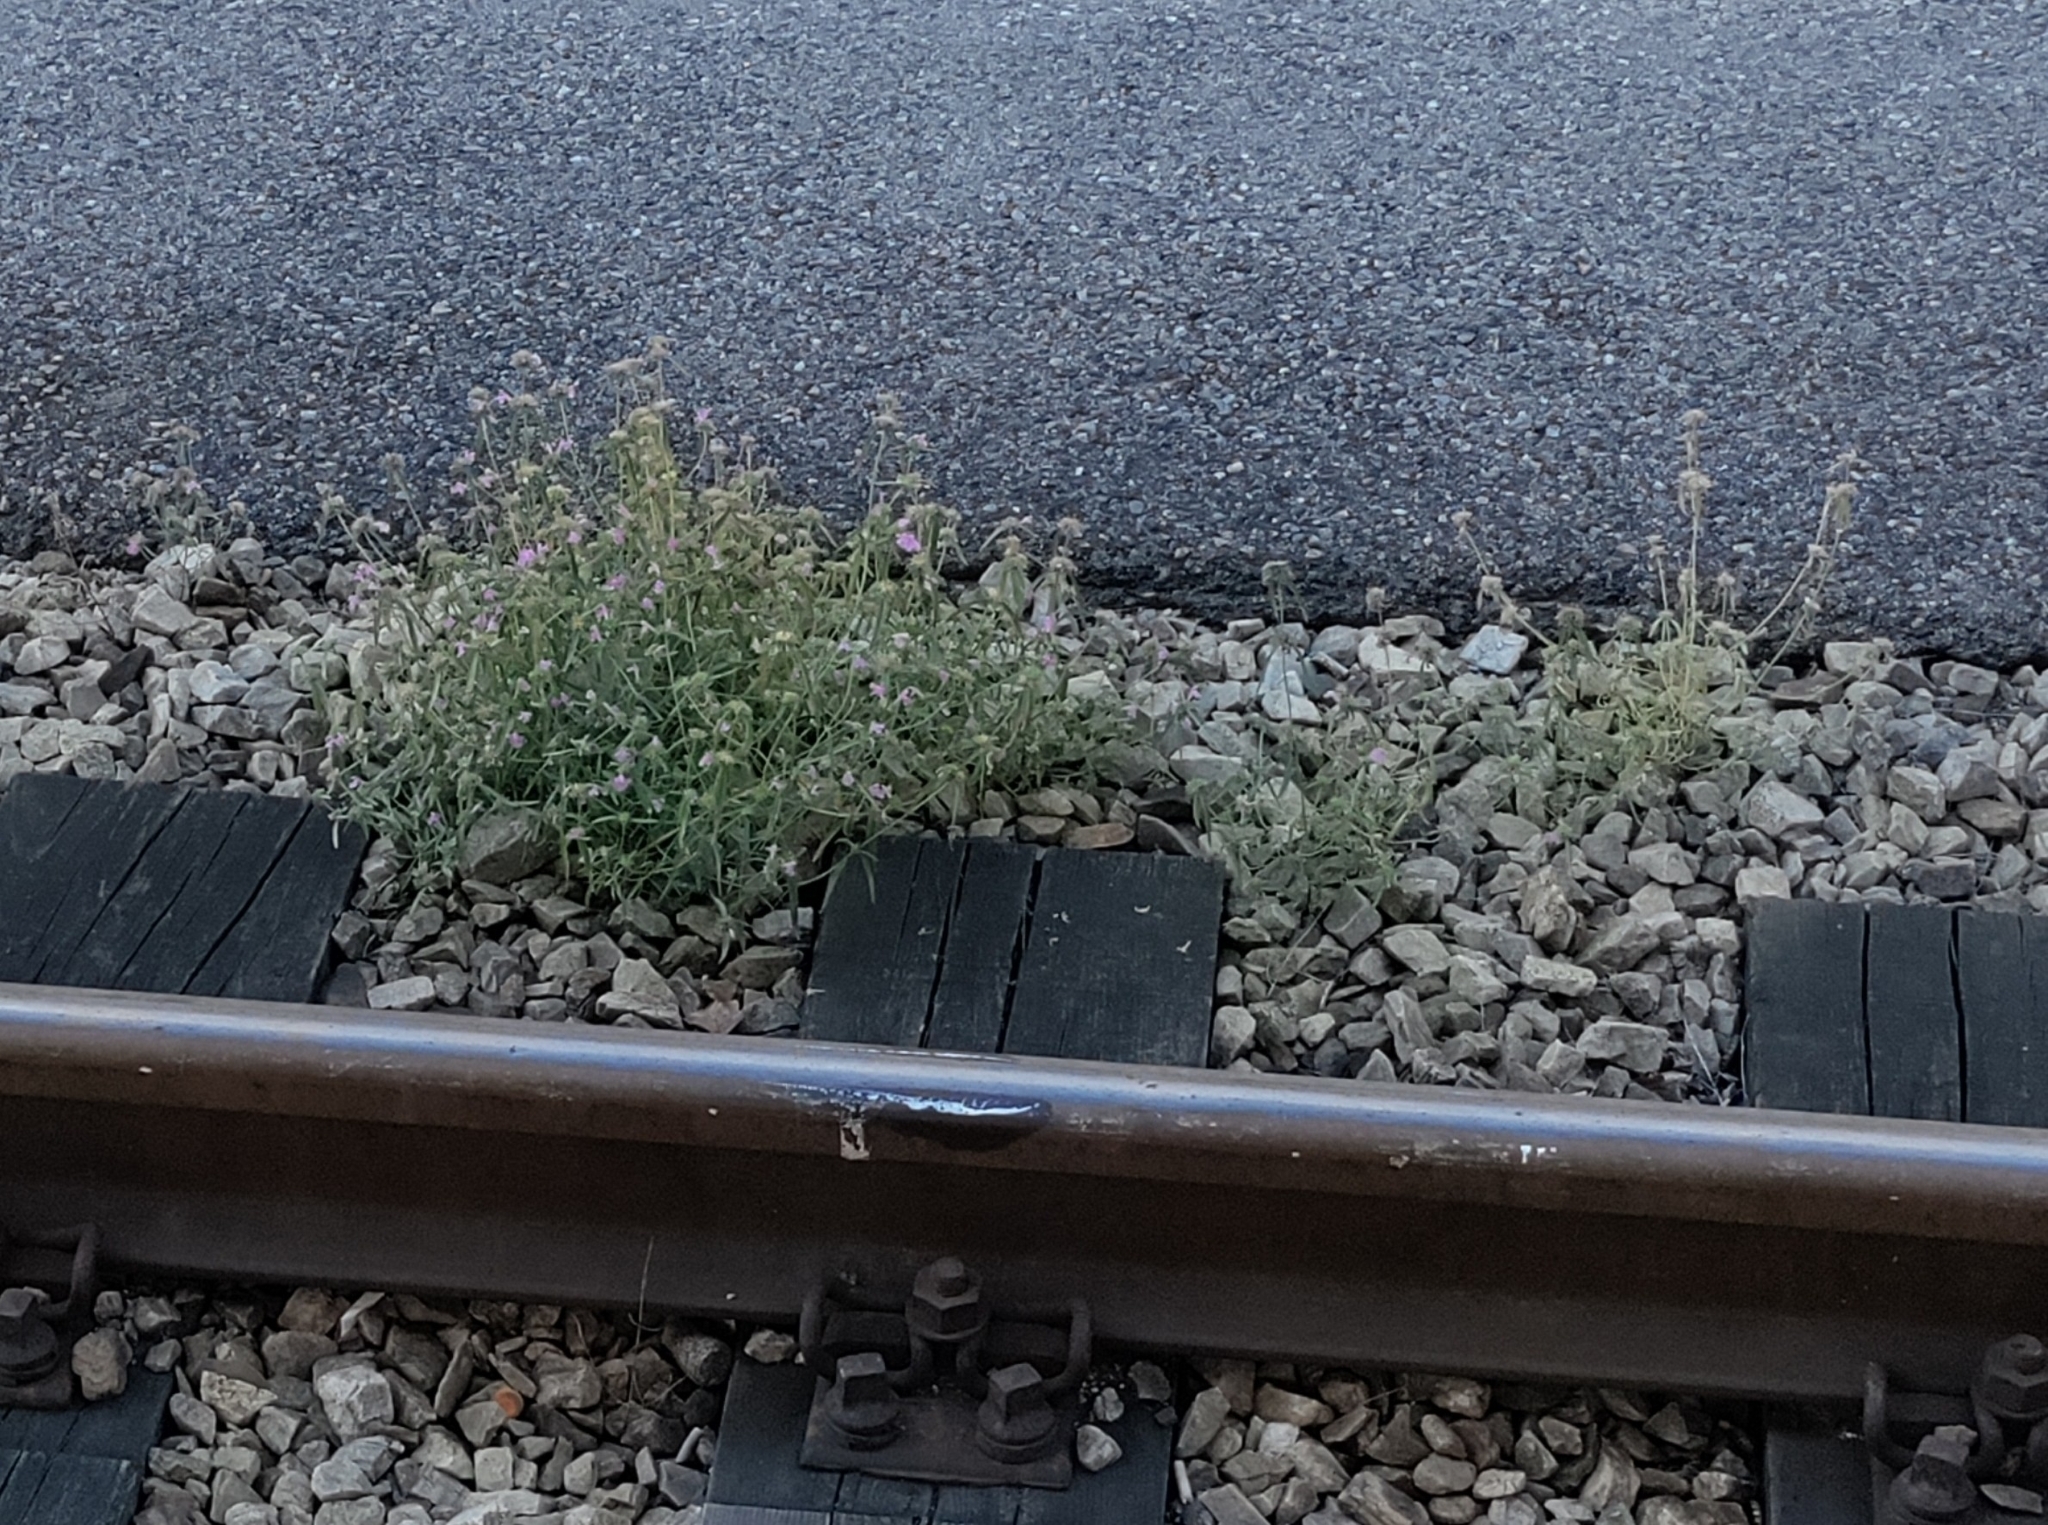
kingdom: Plantae
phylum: Tracheophyta
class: Magnoliopsida
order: Lamiales
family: Lamiaceae
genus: Galeopsis
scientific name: Galeopsis angustifolia
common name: Red hemp-nettle
